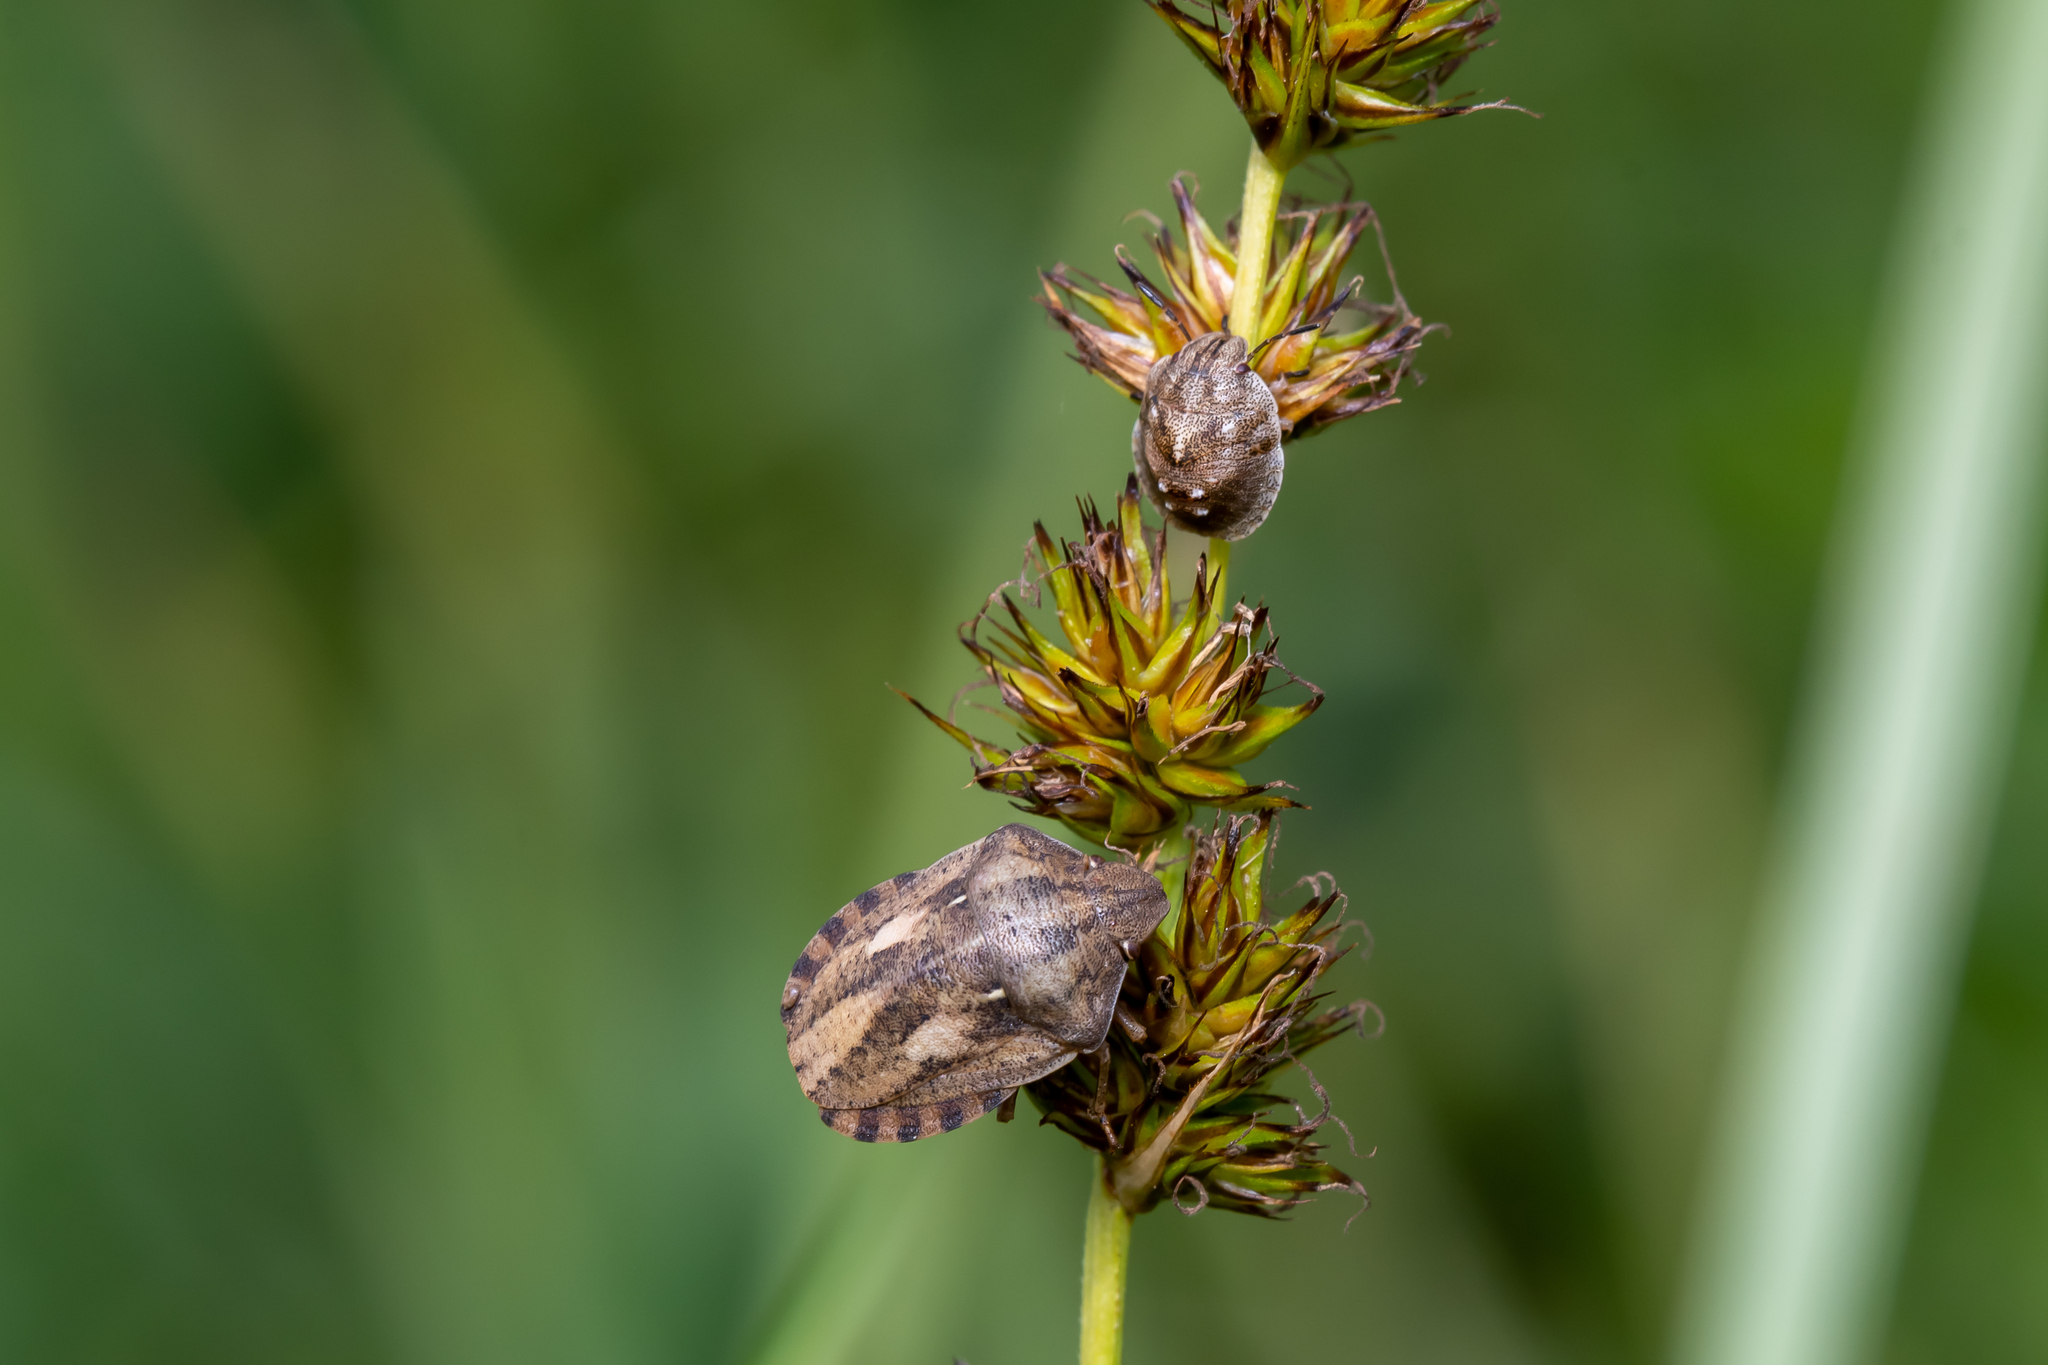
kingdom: Animalia
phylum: Arthropoda
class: Insecta
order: Hemiptera
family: Scutelleridae
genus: Eurygaster
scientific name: Eurygaster testudinaria
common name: Tortoise bug
